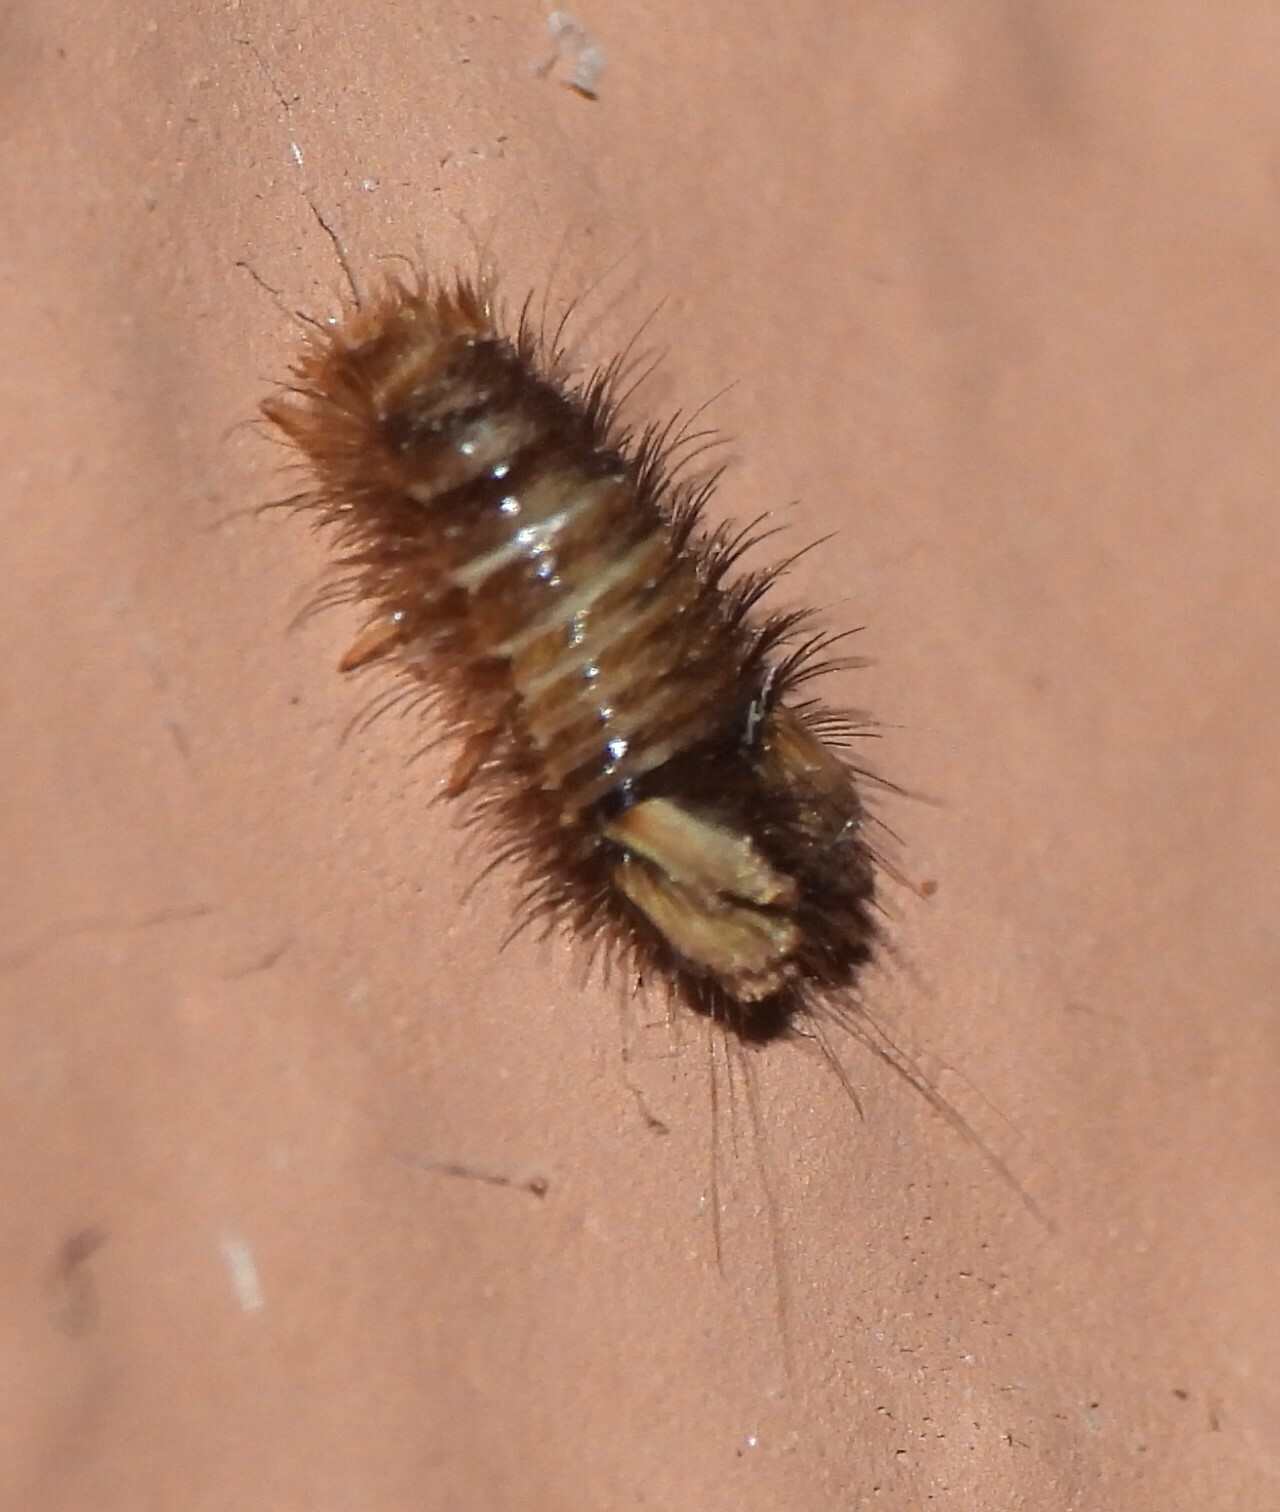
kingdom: Animalia
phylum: Arthropoda
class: Insecta
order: Coleoptera
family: Dermestidae
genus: Anthrenus
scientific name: Anthrenus verbasci
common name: Varied carpet beetle
